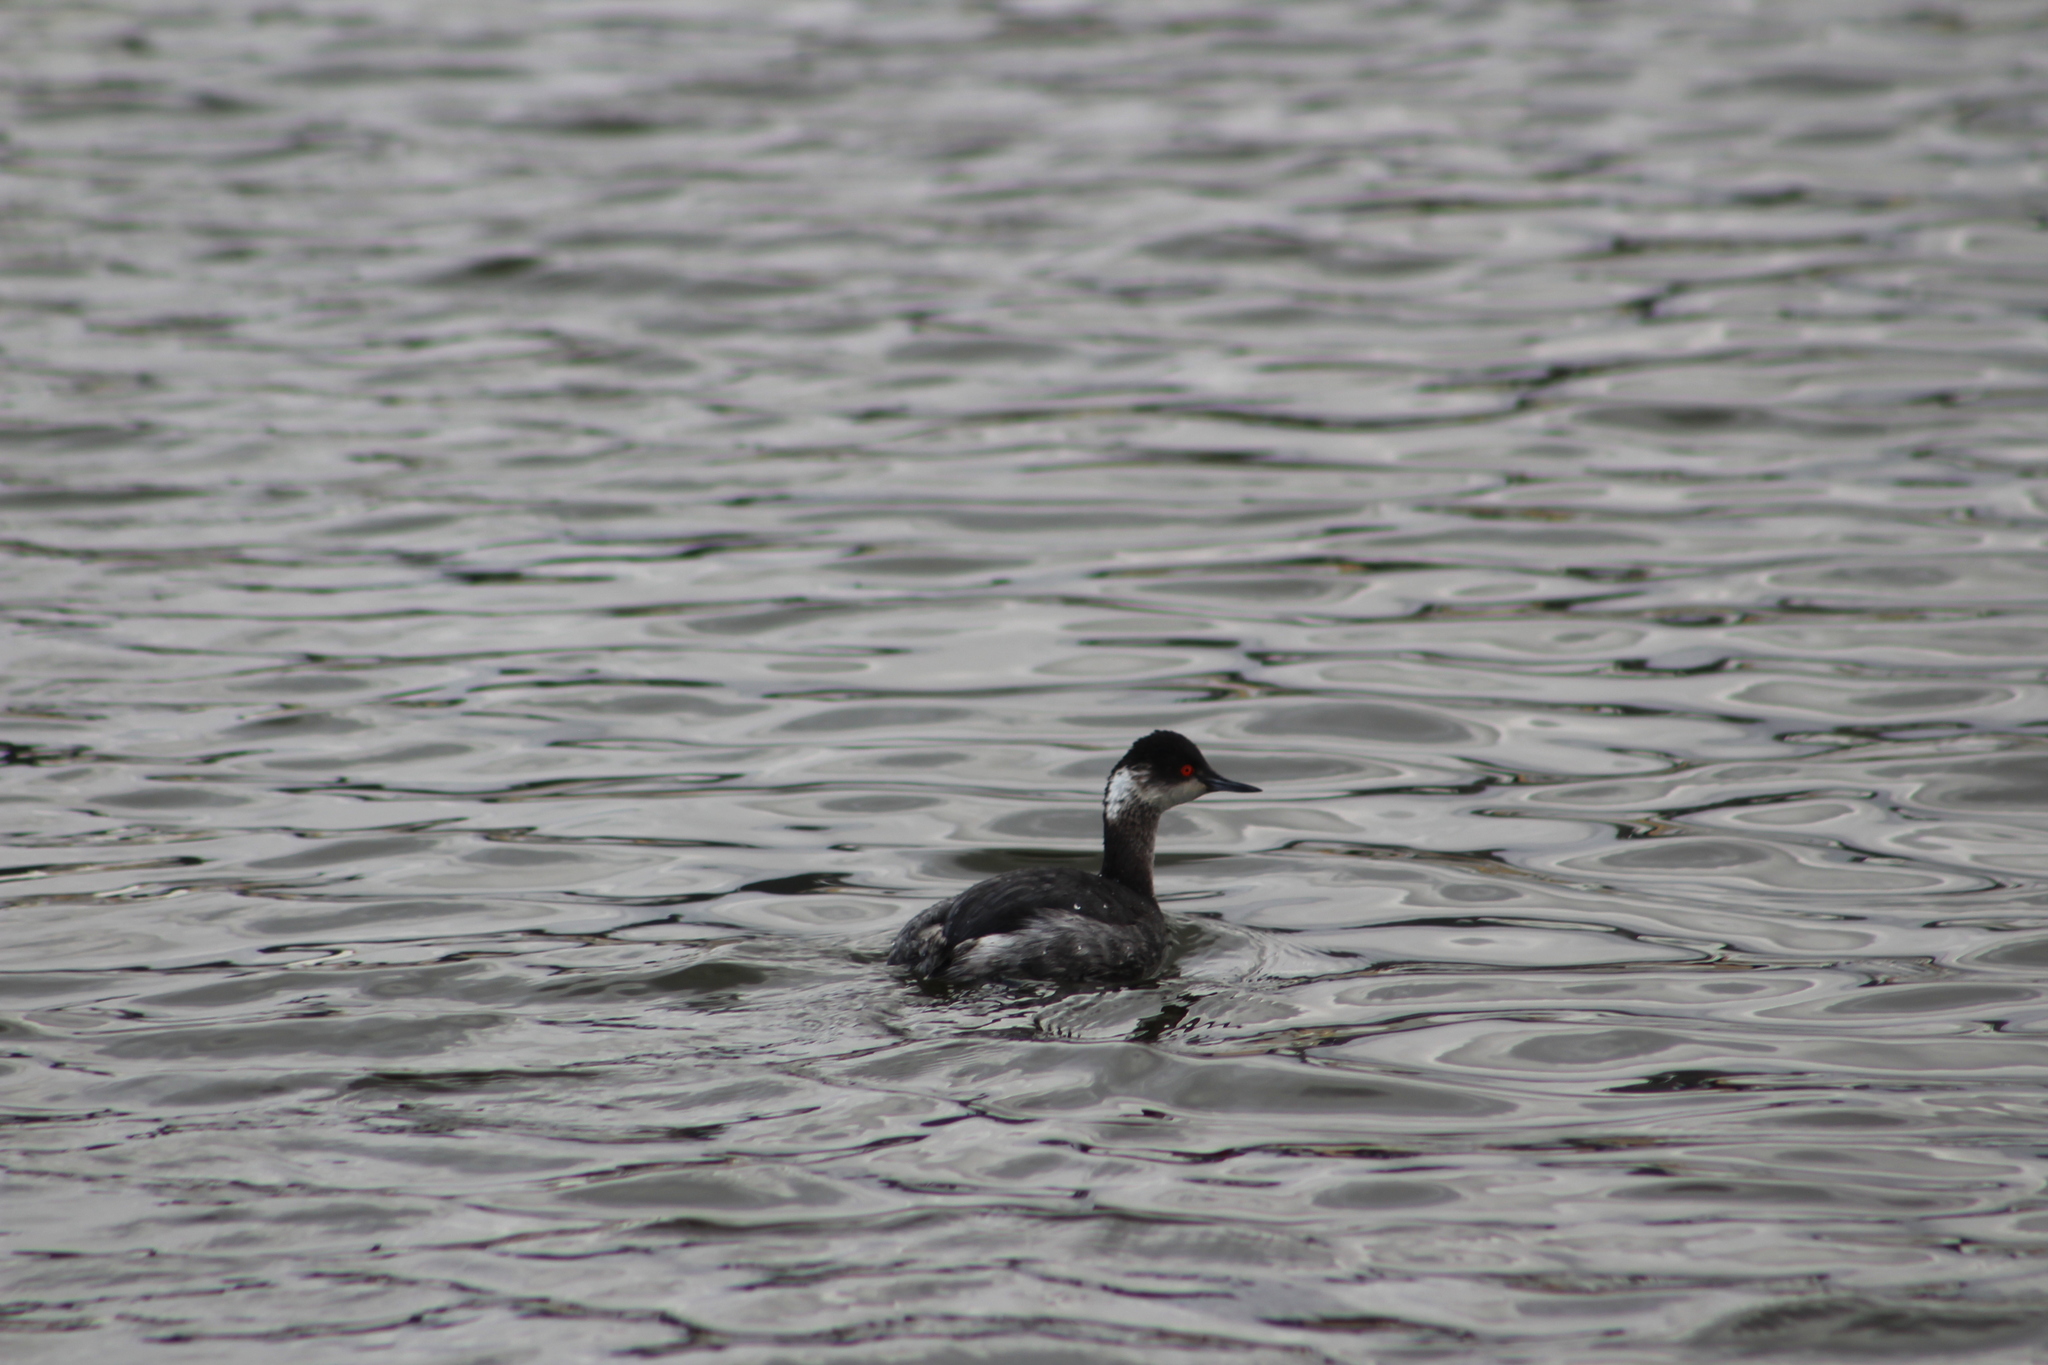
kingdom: Animalia
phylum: Chordata
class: Aves
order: Podicipediformes
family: Podicipedidae
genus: Podiceps
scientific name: Podiceps nigricollis
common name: Black-necked grebe
